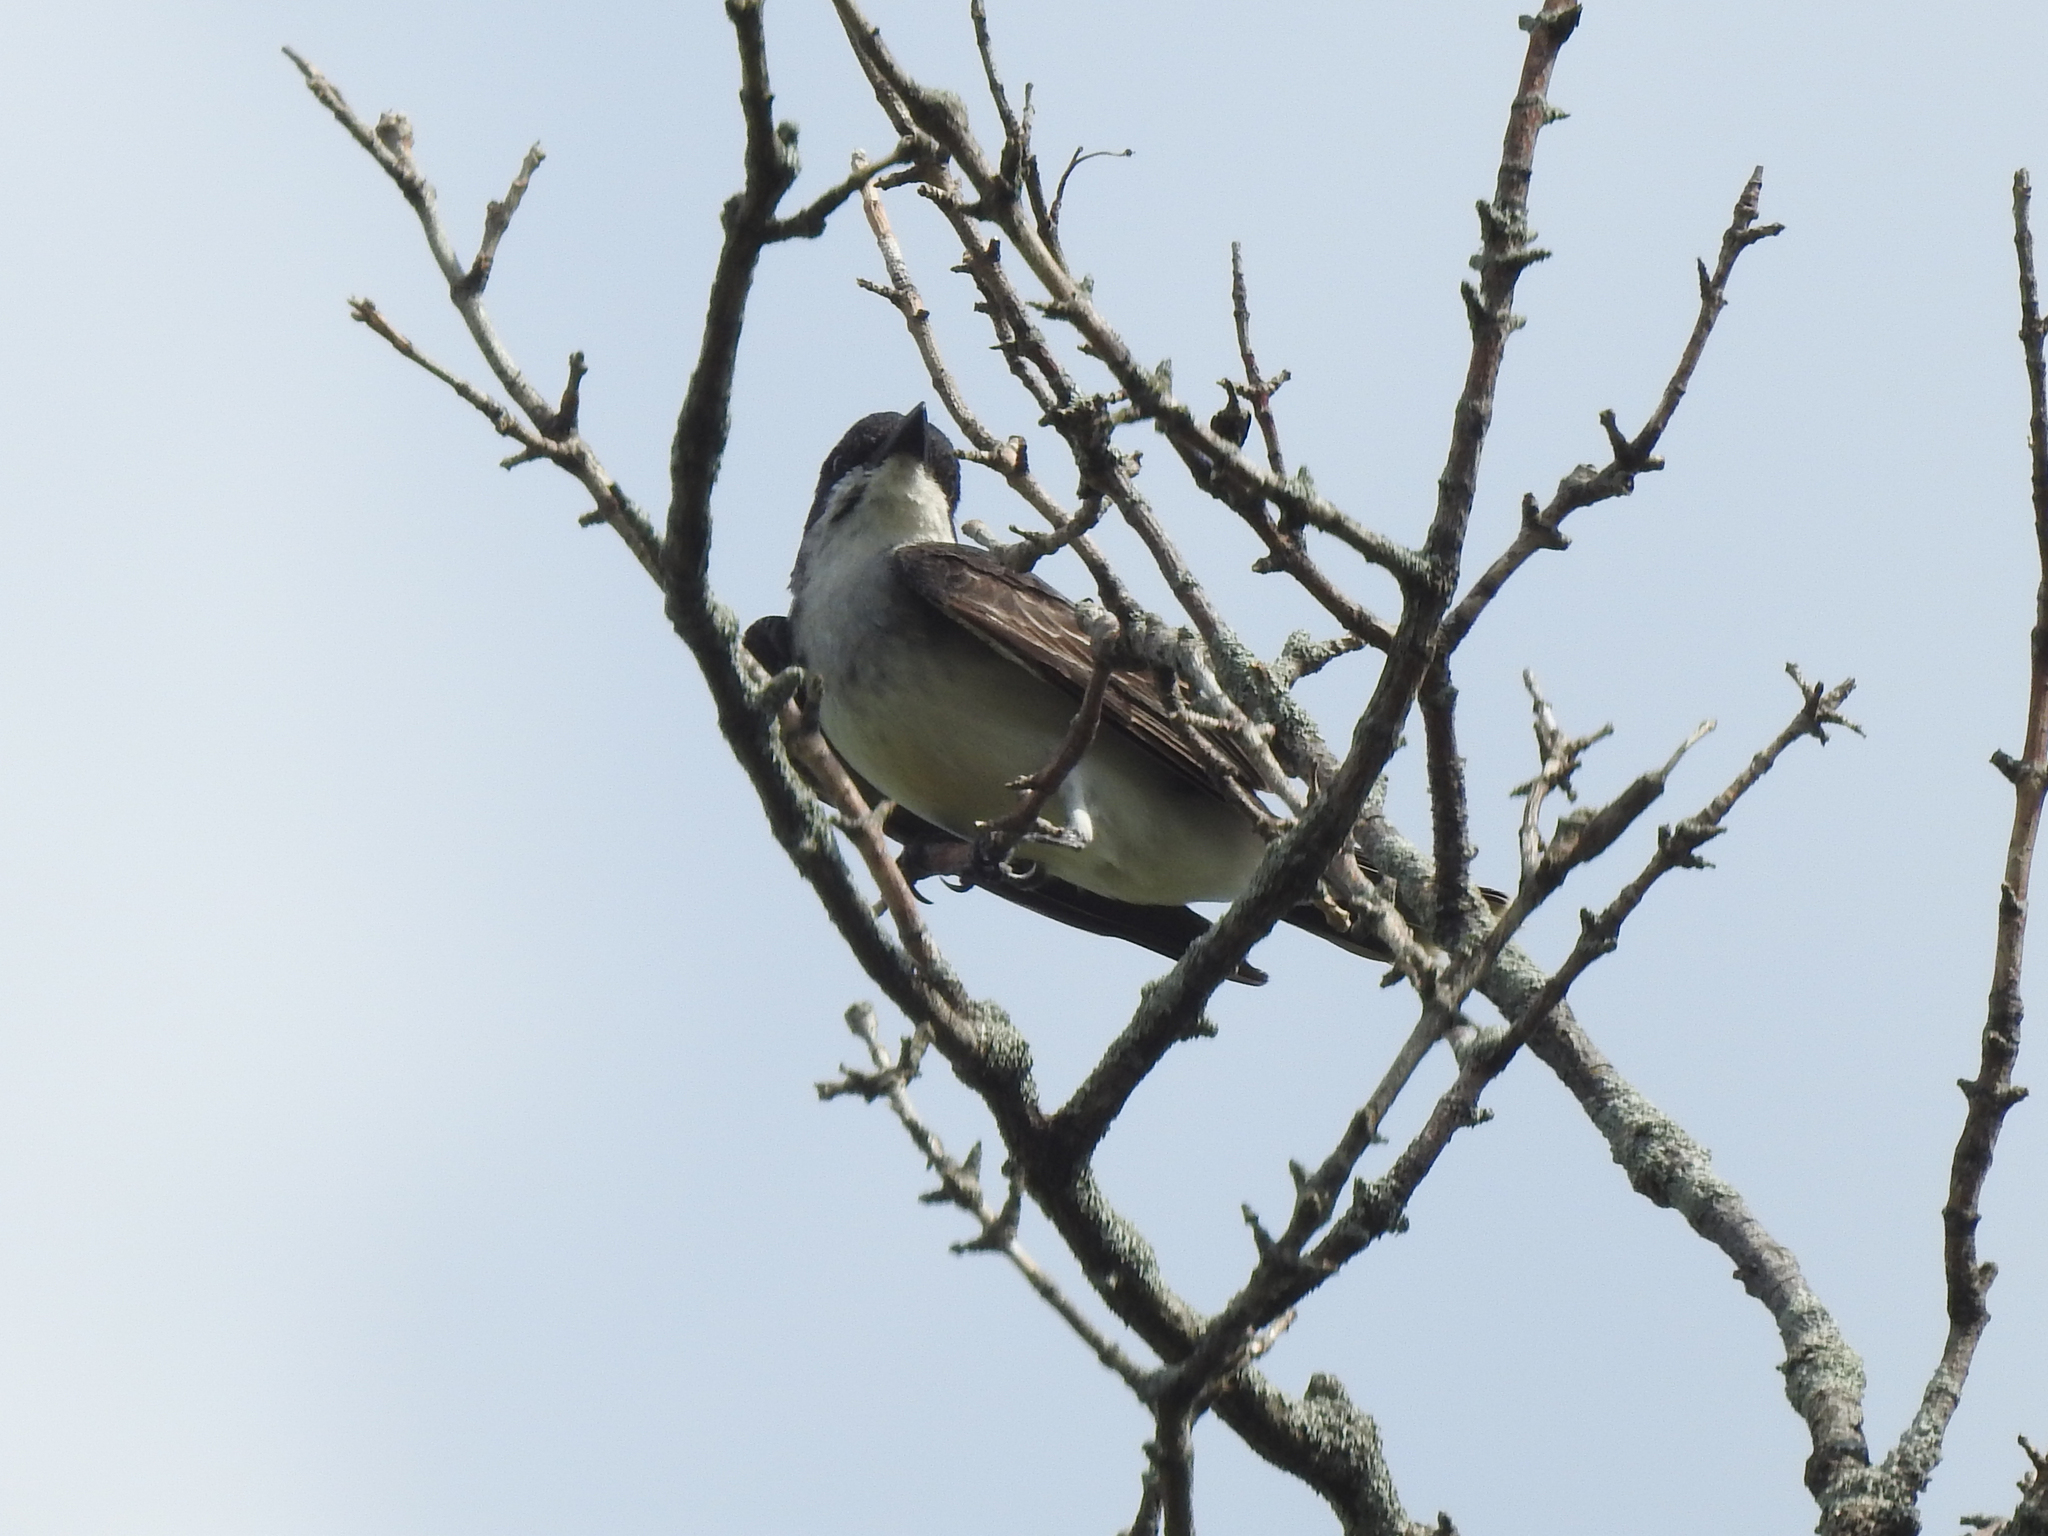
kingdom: Animalia
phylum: Chordata
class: Aves
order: Passeriformes
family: Tyrannidae
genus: Tyrannus
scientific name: Tyrannus tyrannus
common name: Eastern kingbird
